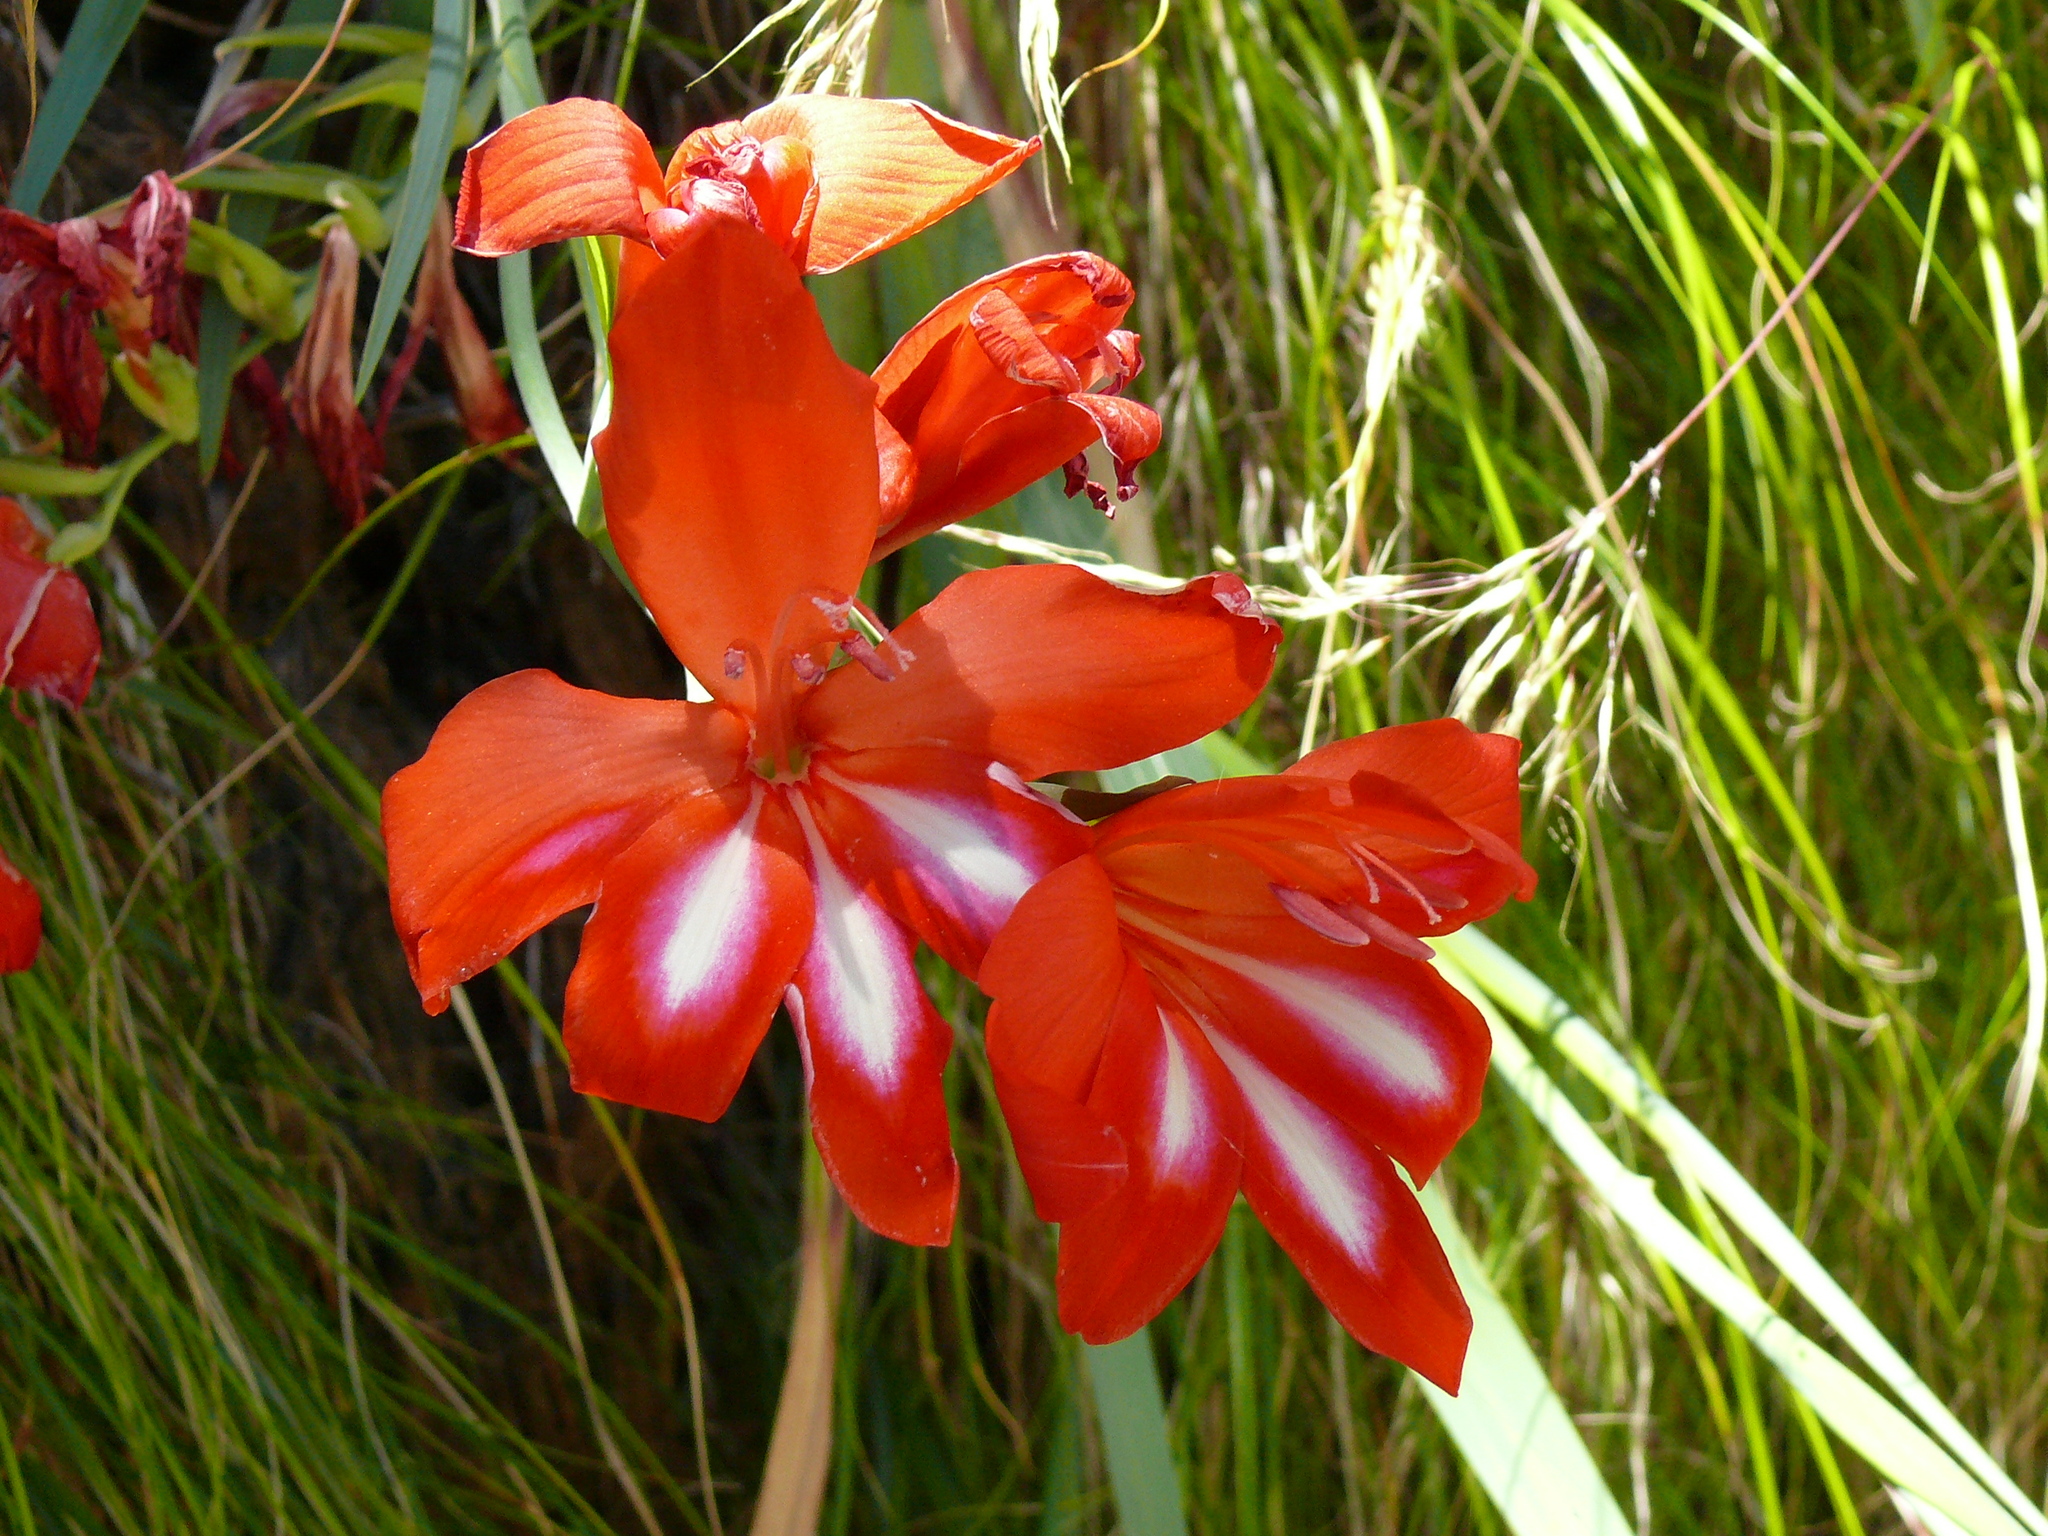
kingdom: Plantae
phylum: Tracheophyta
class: Liliopsida
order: Asparagales
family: Iridaceae
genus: Gladiolus
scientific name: Gladiolus cardinalis
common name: New year-lily
